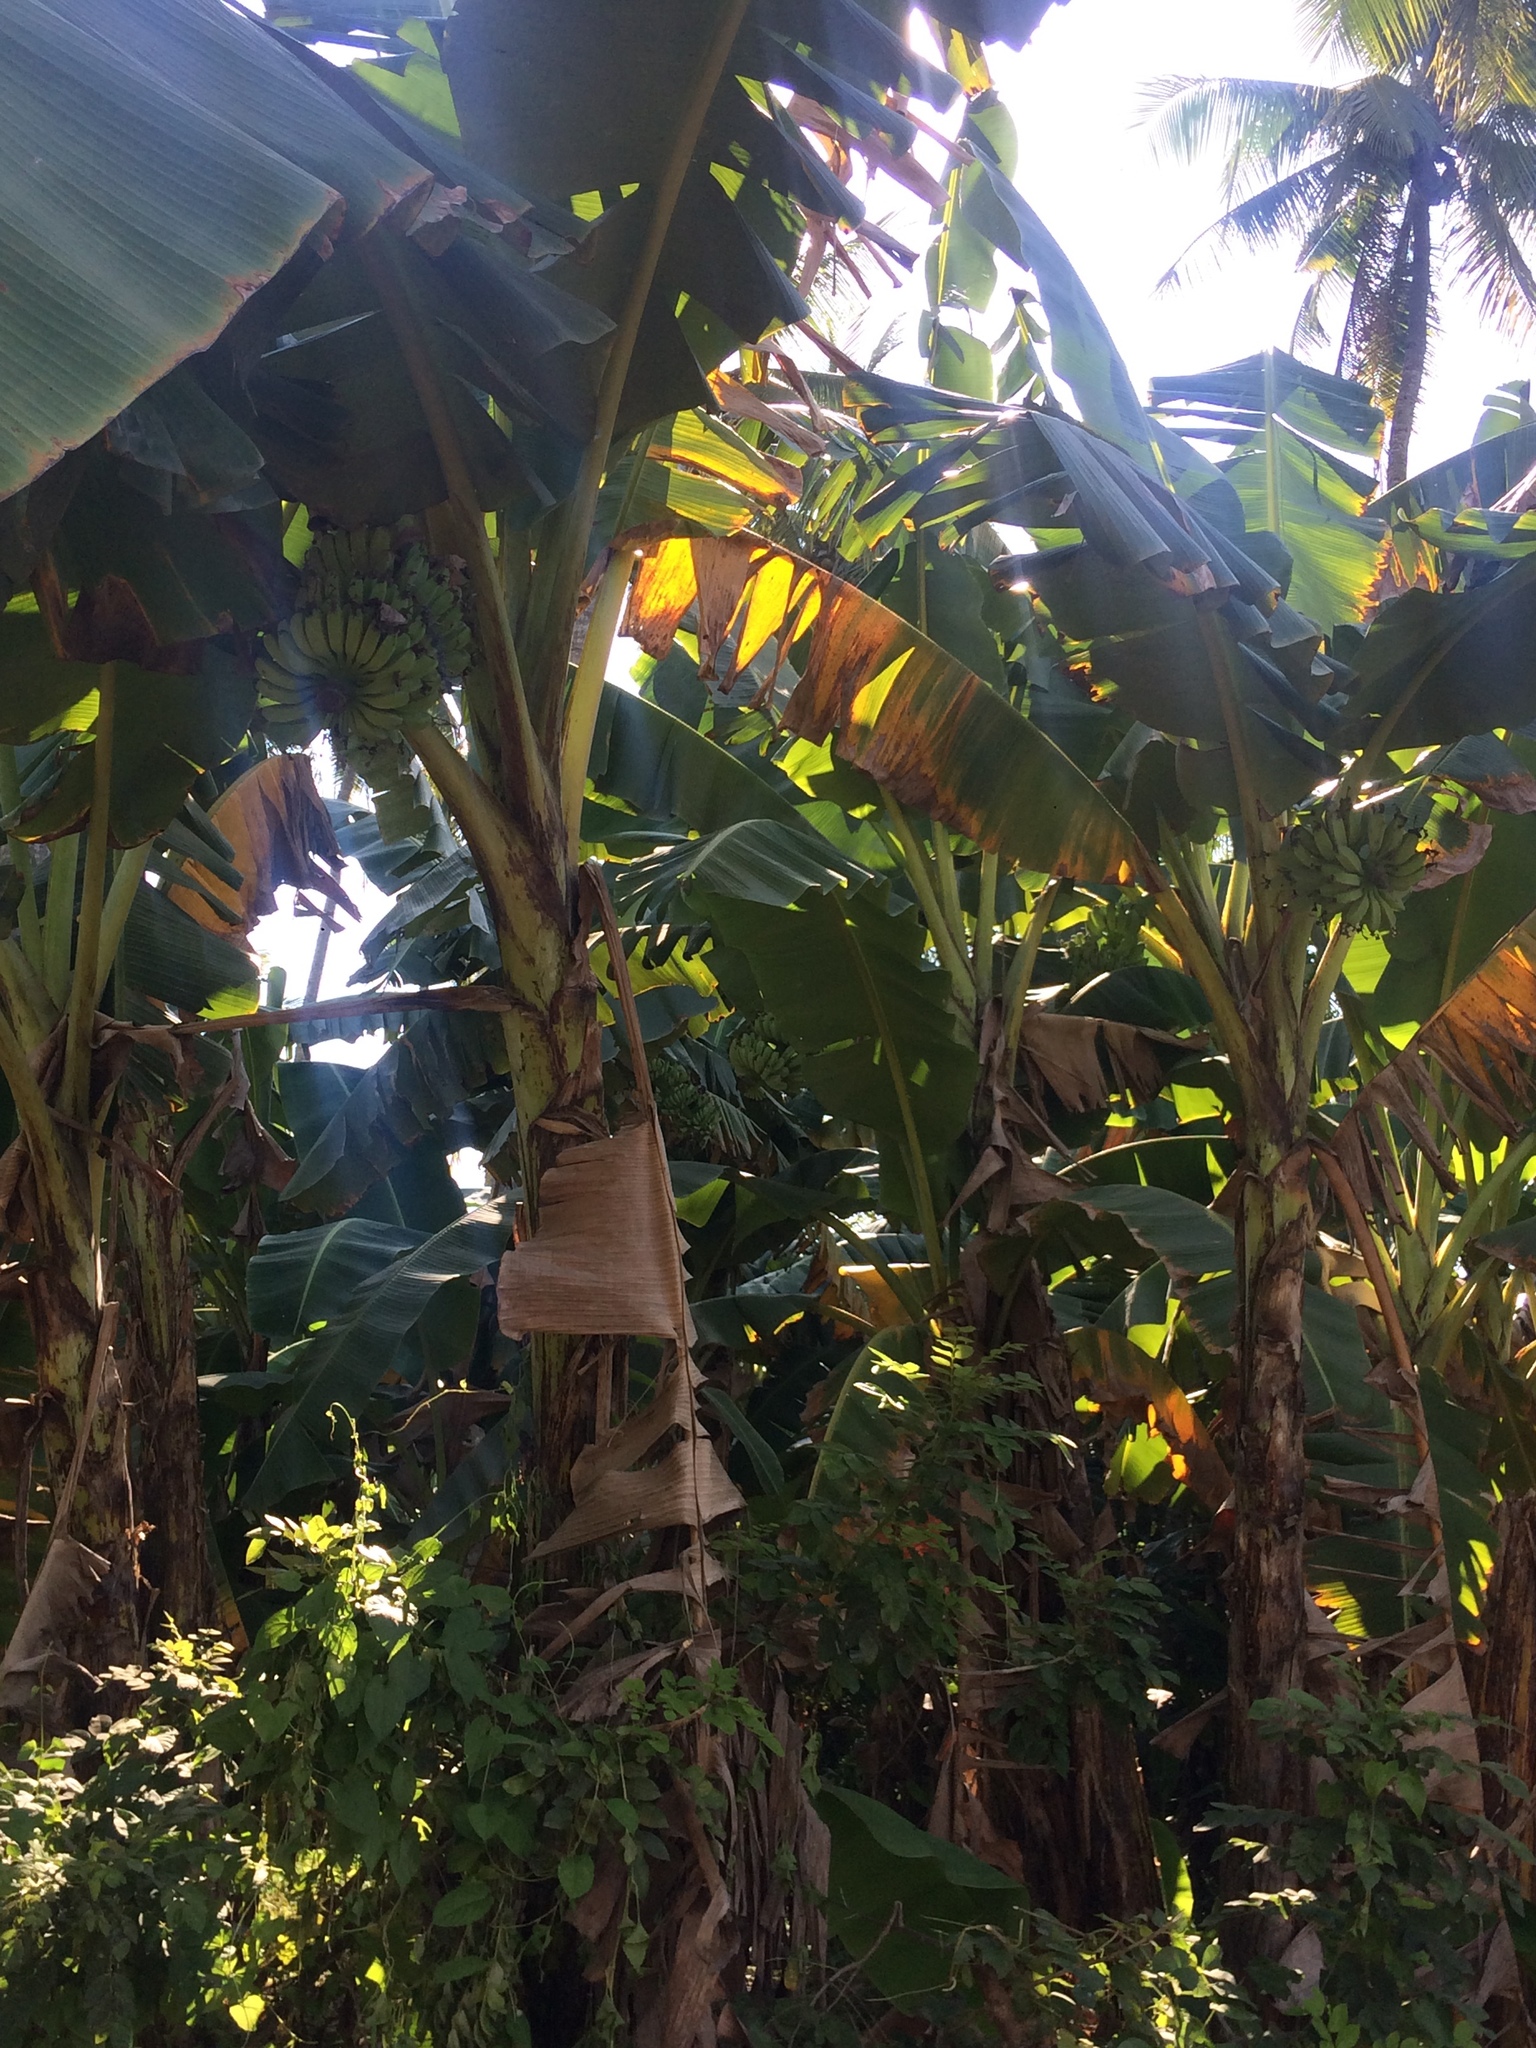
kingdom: Plantae
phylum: Tracheophyta
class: Liliopsida
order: Zingiberales
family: Musaceae
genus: Musa
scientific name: Musa paradisiaca
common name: French plantain
